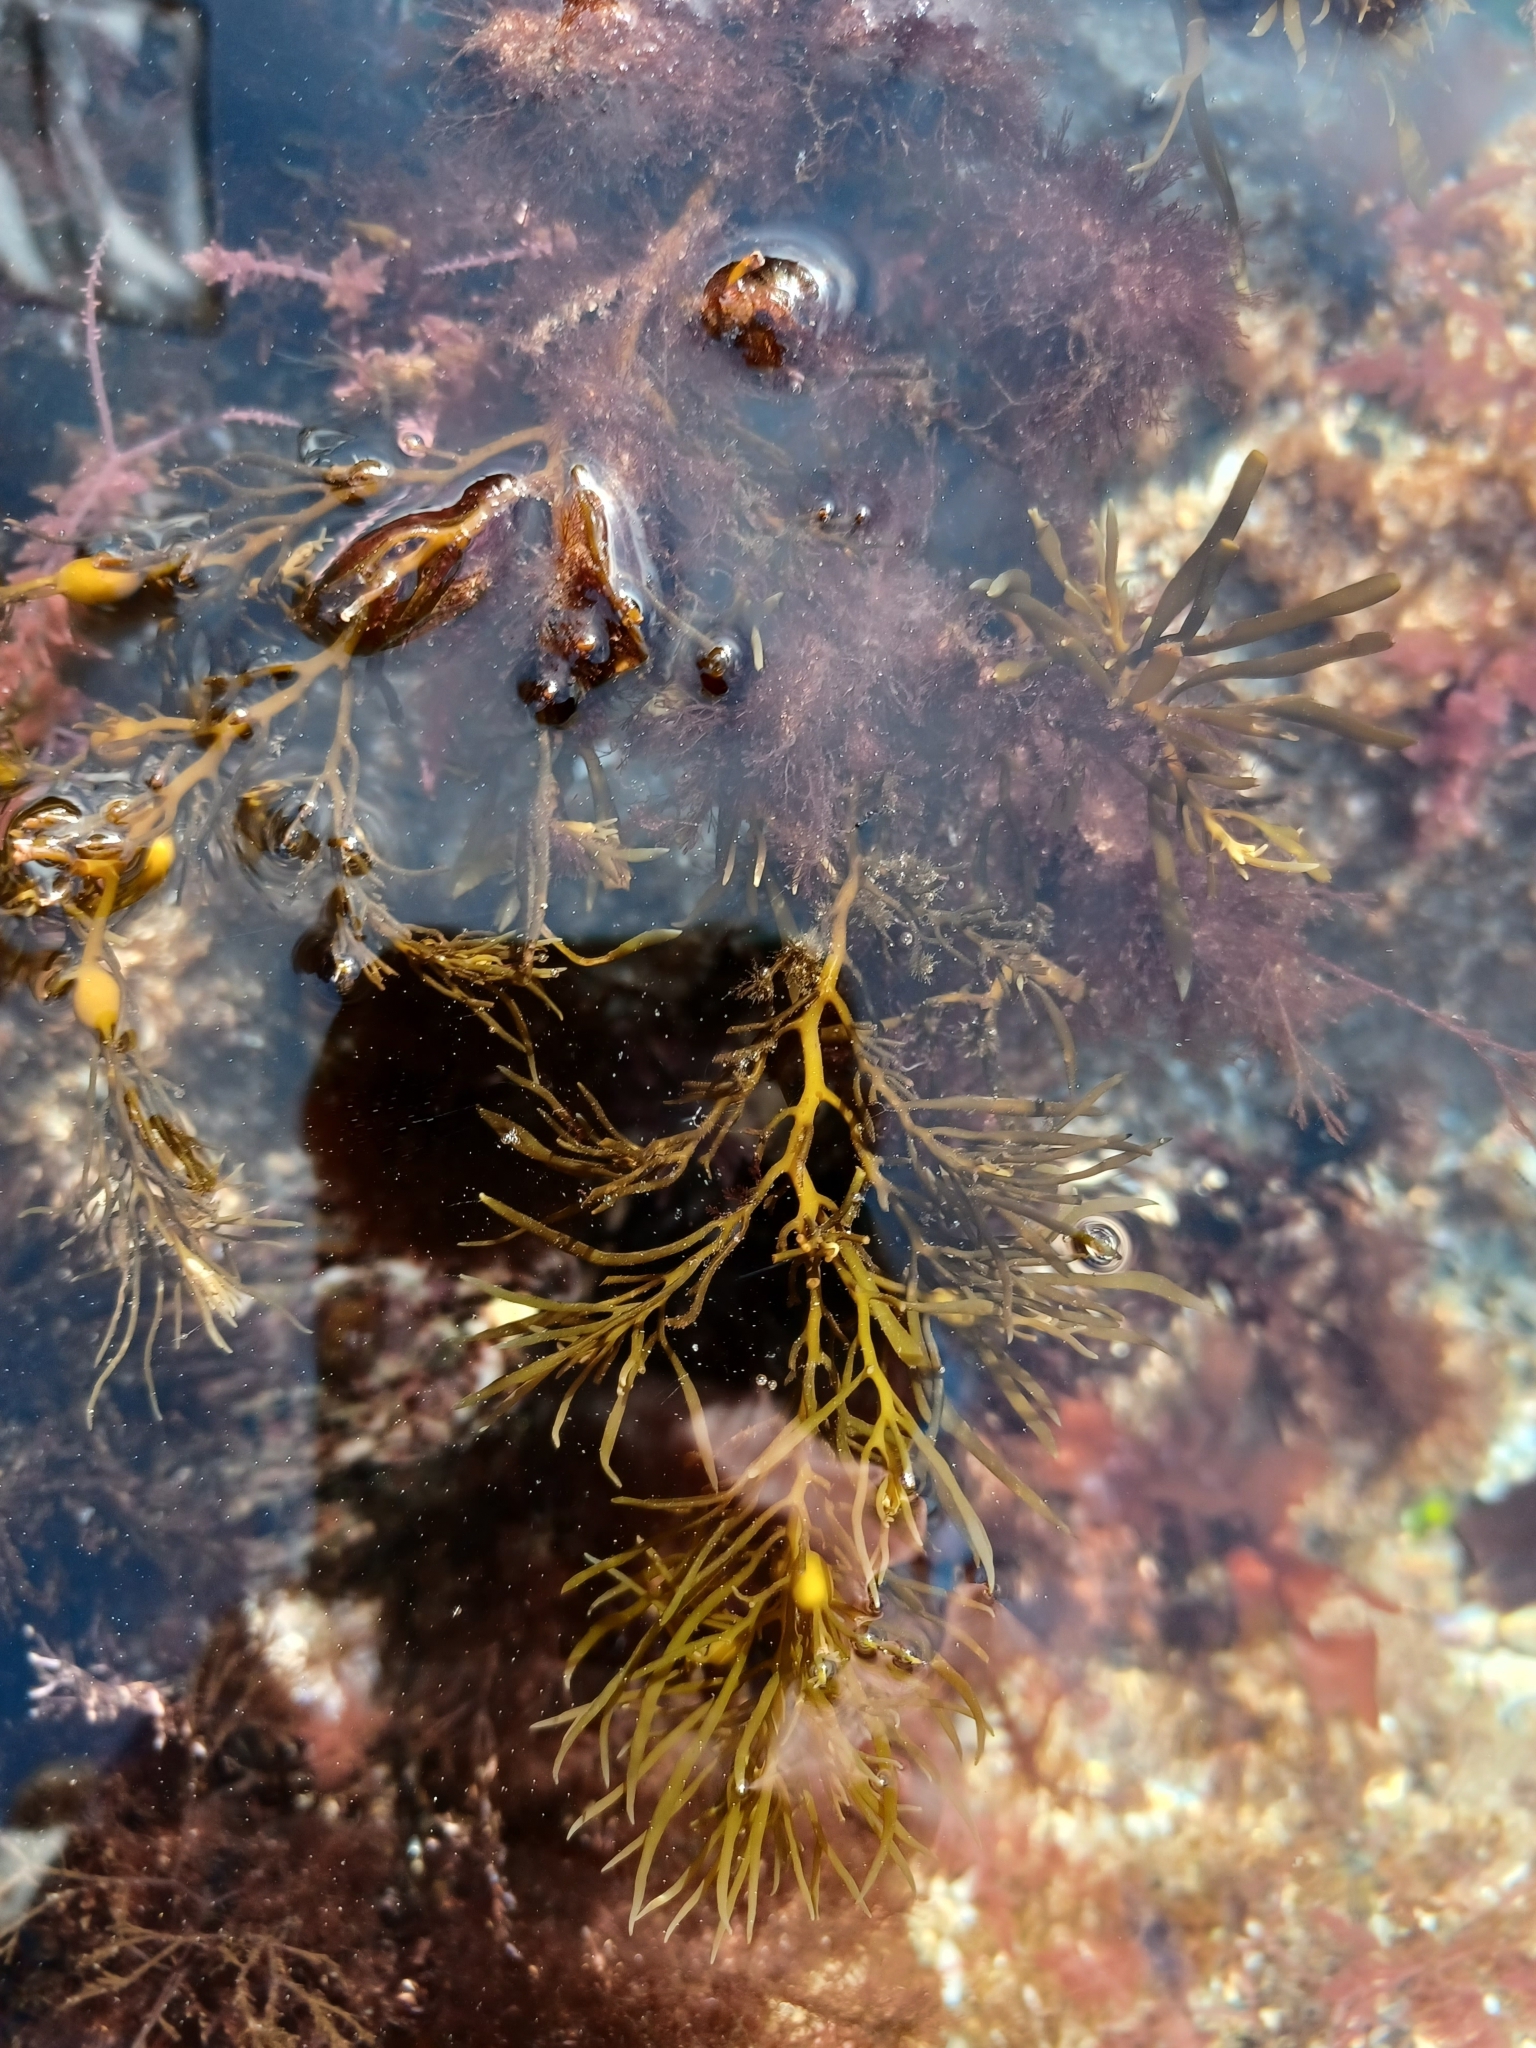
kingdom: Chromista
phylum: Ochrophyta
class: Phaeophyceae
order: Fucales
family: Sargassaceae
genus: Cystoseira
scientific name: Cystoseira Gongolaria baccata
